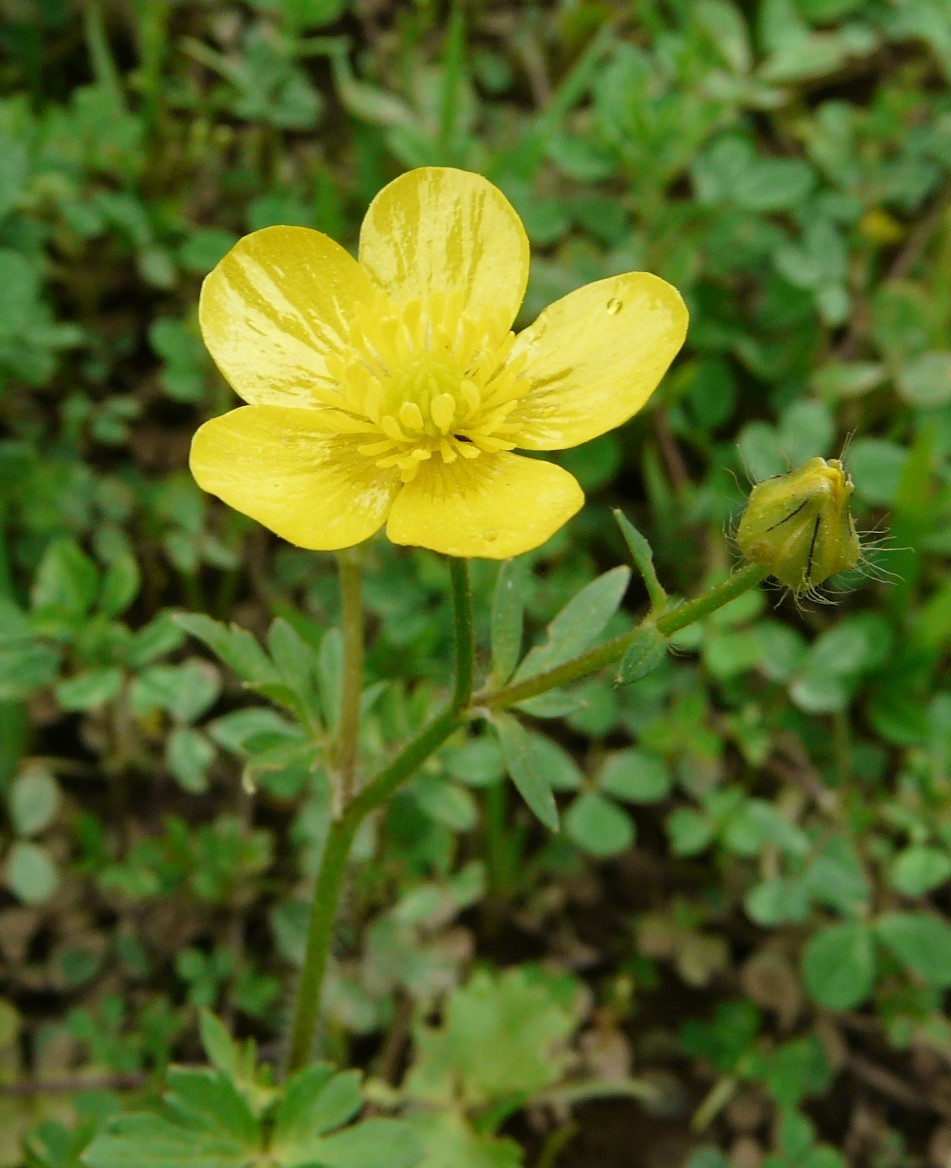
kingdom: Plantae
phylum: Tracheophyta
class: Magnoliopsida
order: Ranunculales
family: Ranunculaceae
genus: Ranunculus
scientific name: Ranunculus sardous
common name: Hairy buttercup
